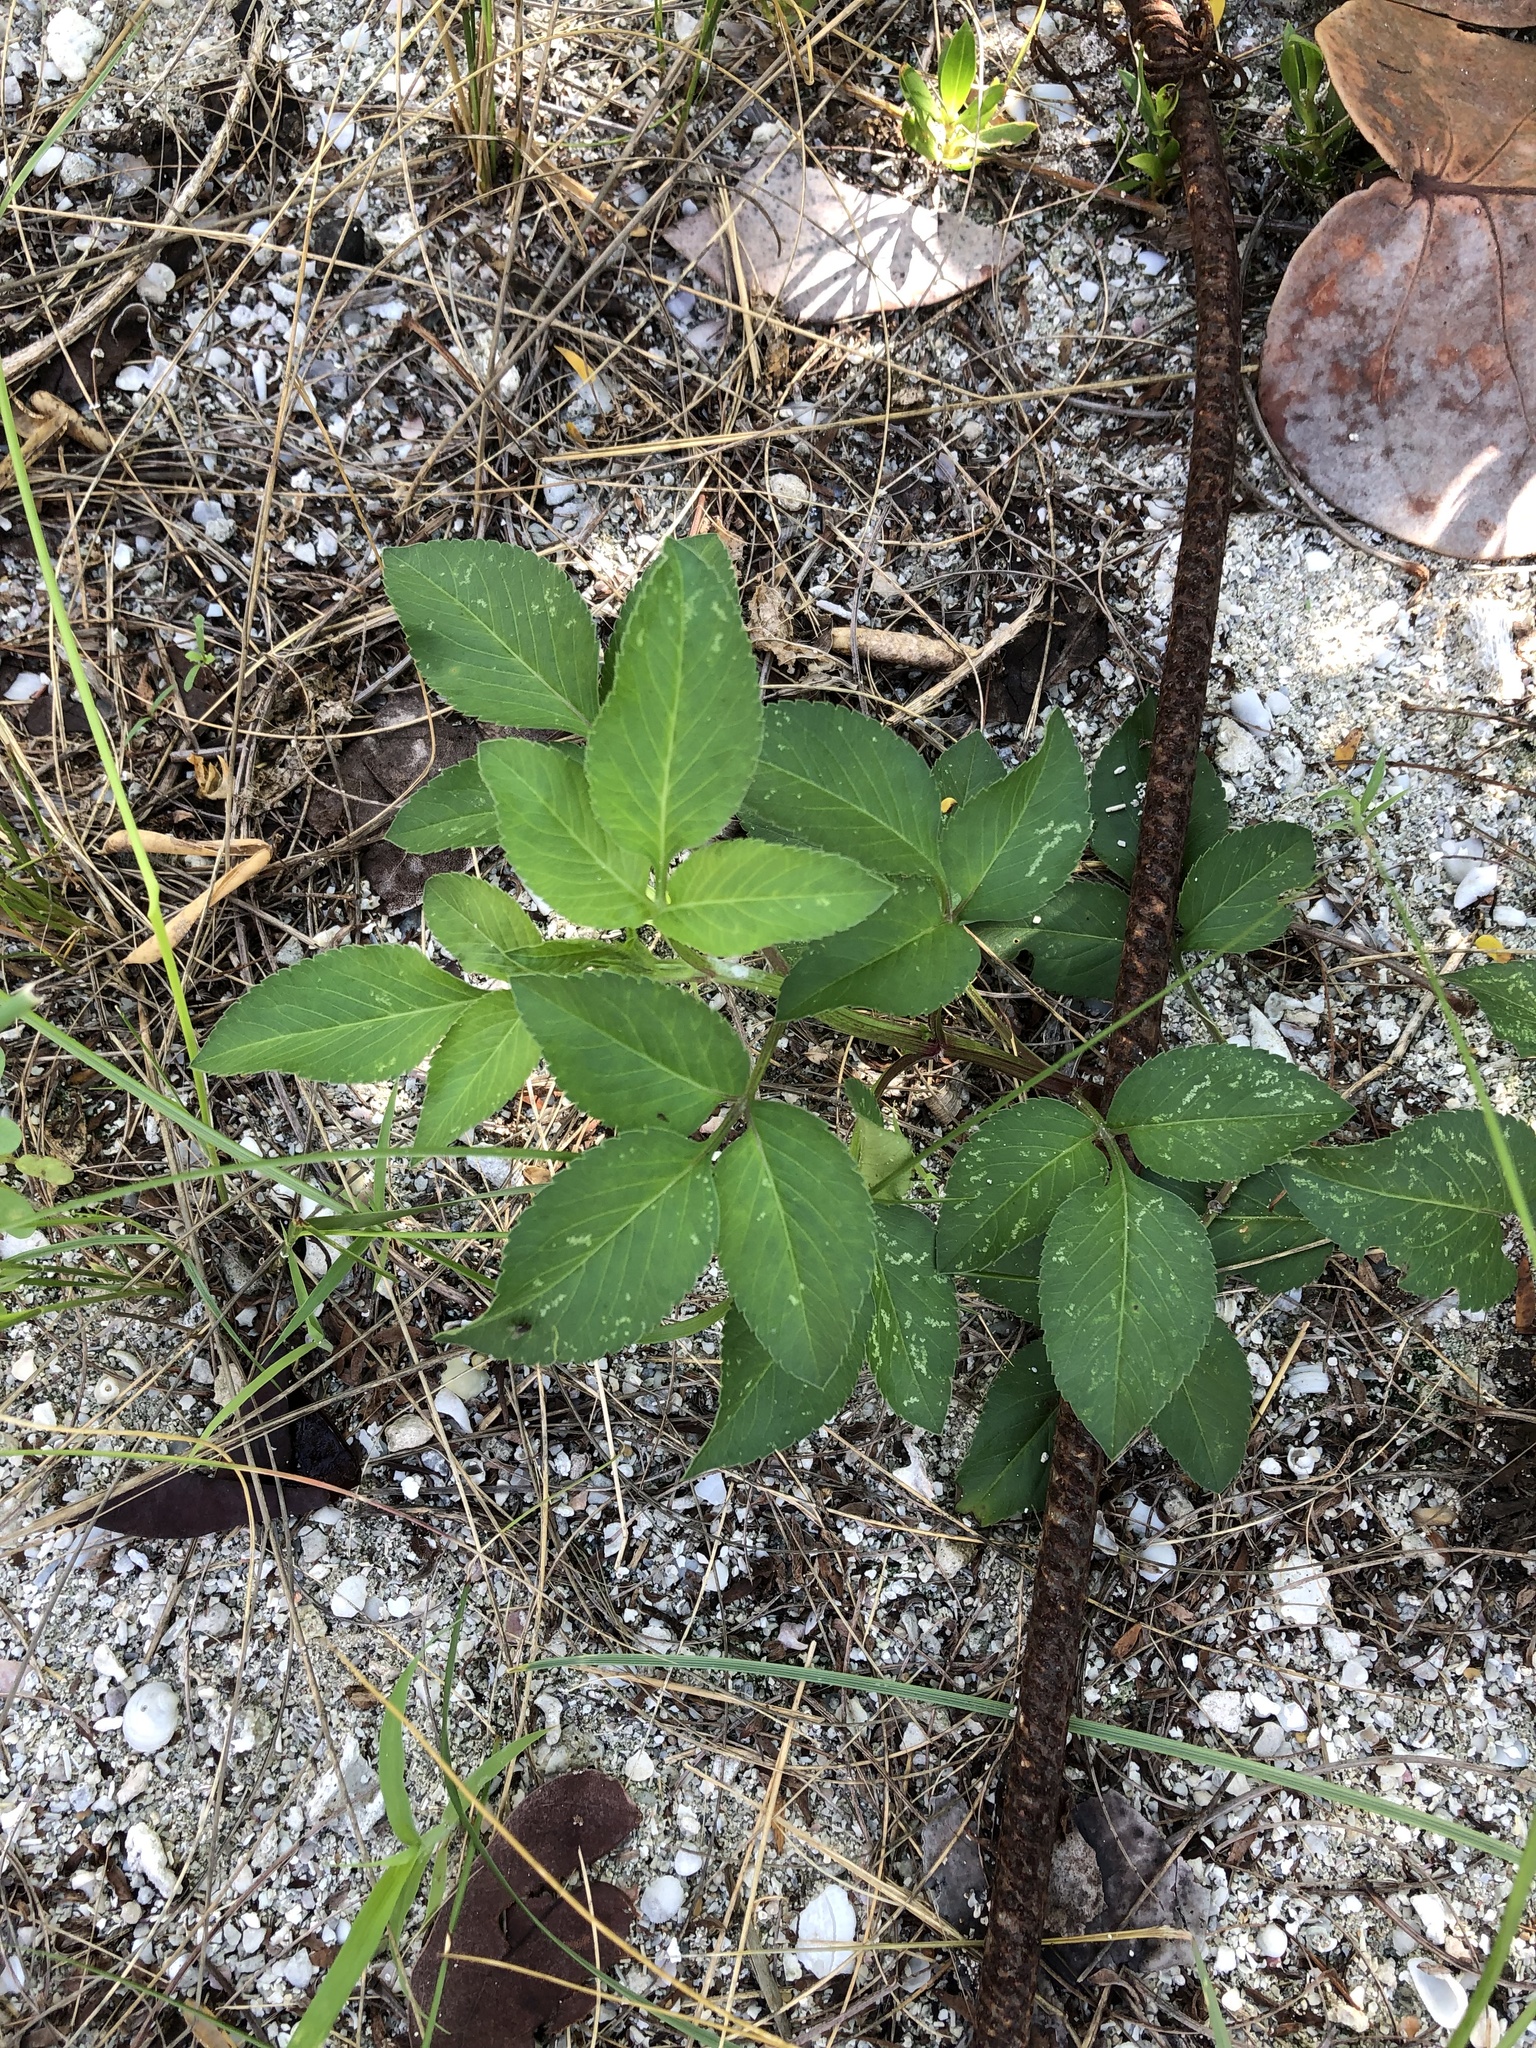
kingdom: Plantae
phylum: Tracheophyta
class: Magnoliopsida
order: Asterales
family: Asteraceae
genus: Bidens
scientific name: Bidens alba
